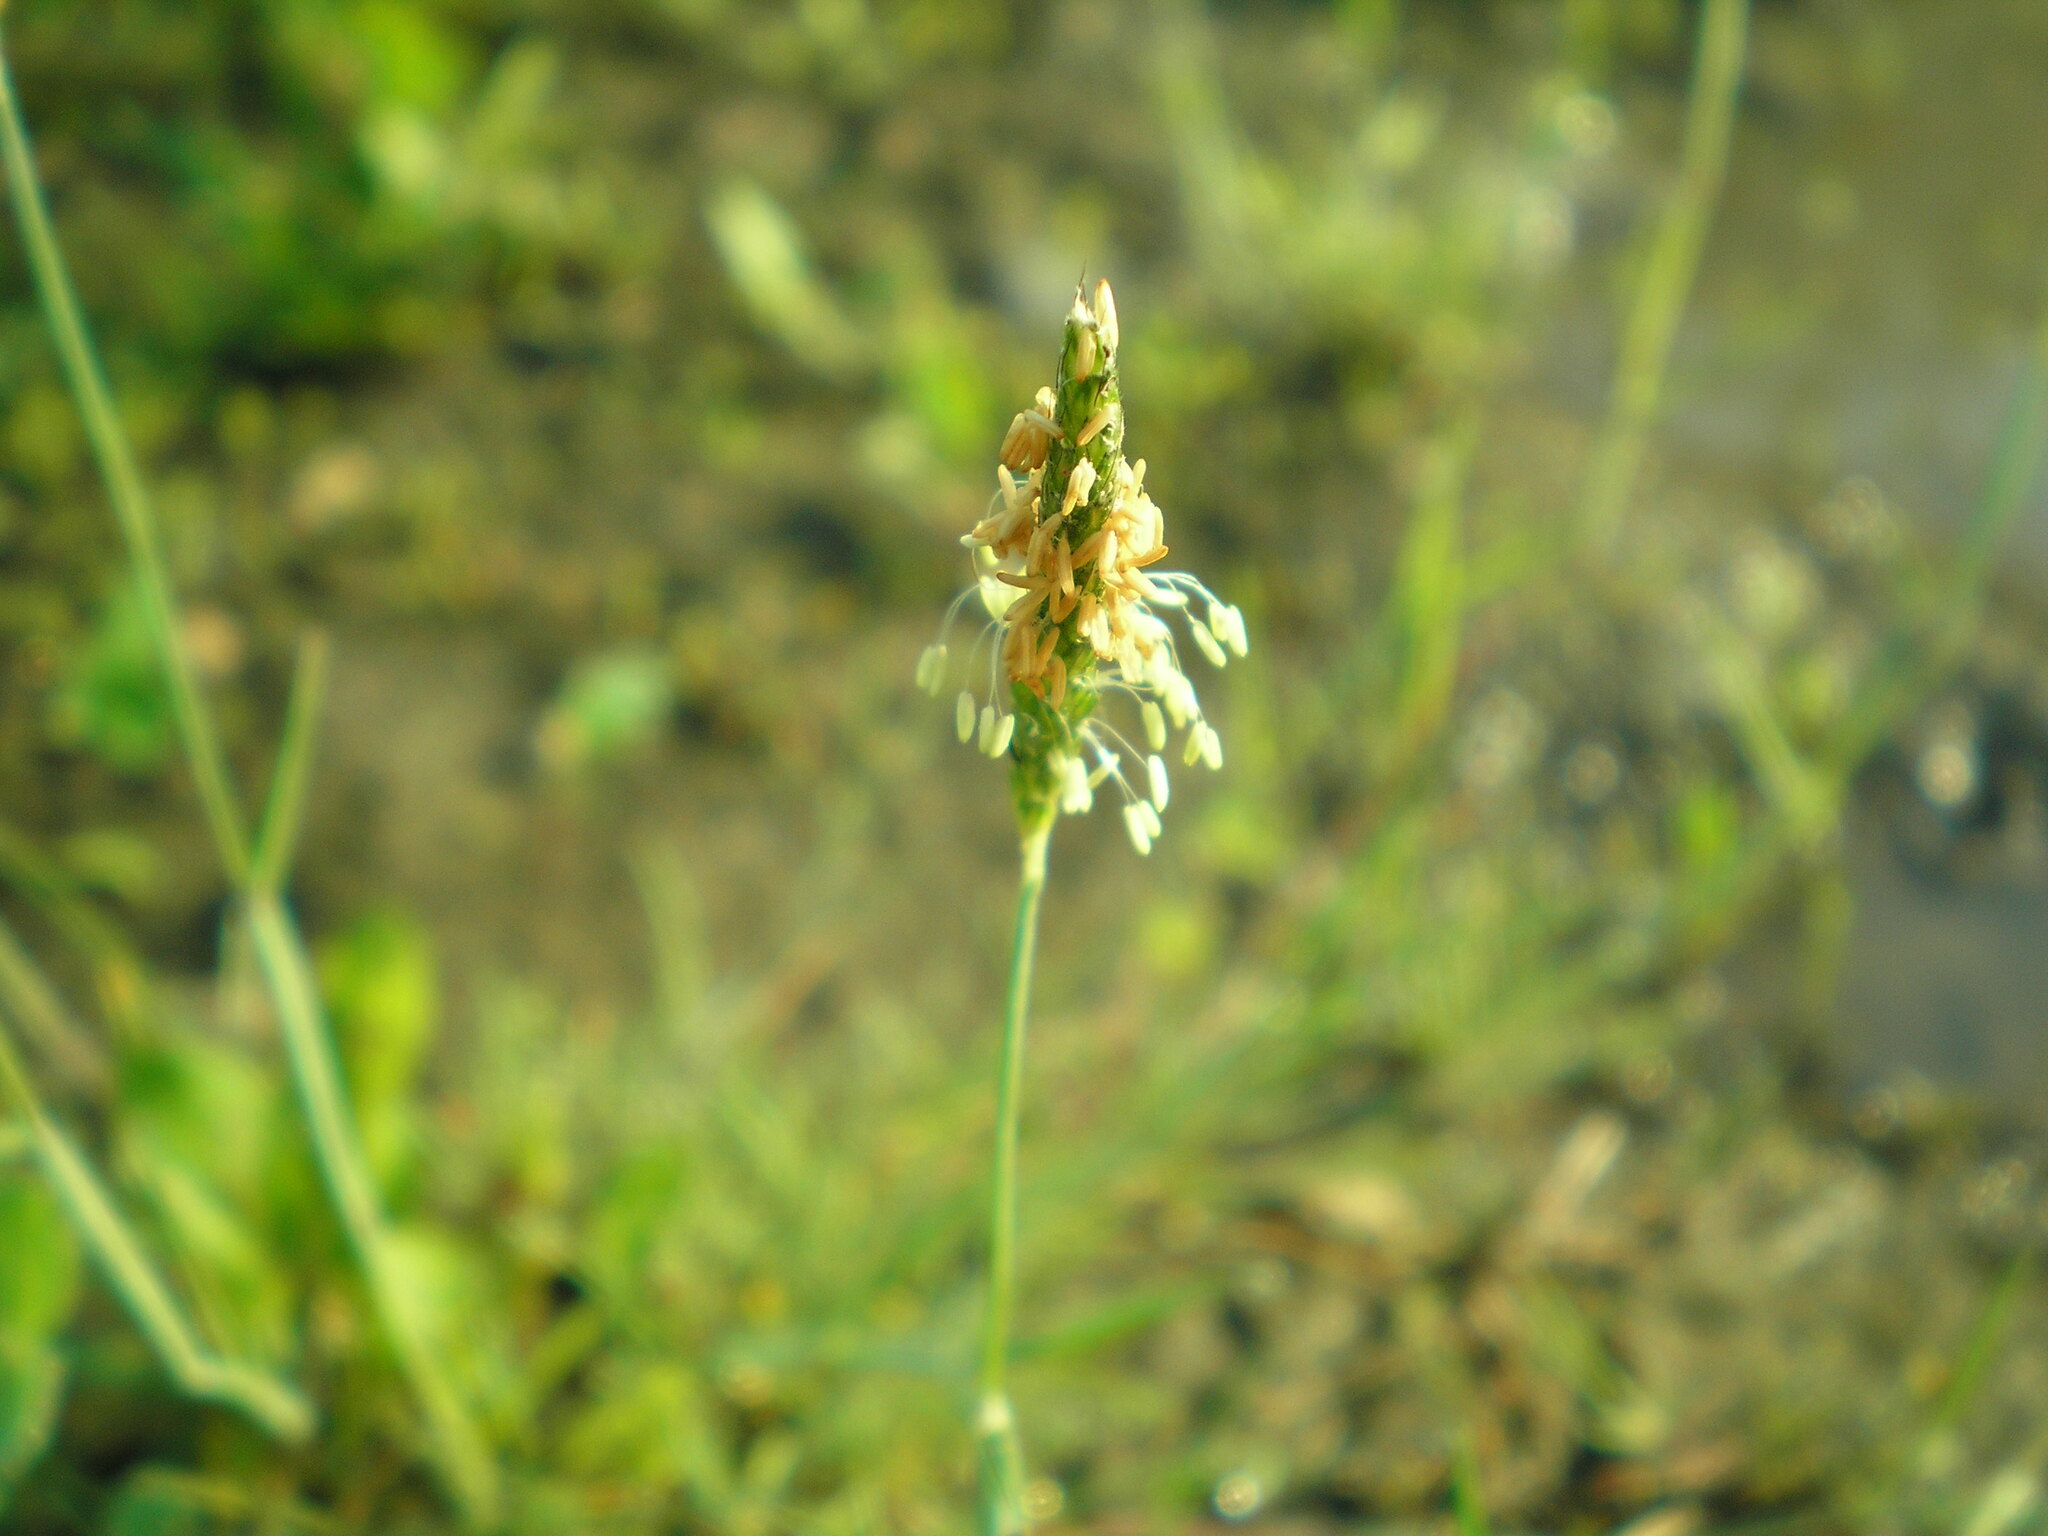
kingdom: Plantae
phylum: Tracheophyta
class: Liliopsida
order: Poales
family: Poaceae
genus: Alopecurus
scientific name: Alopecurus aequalis
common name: Orange foxtail
